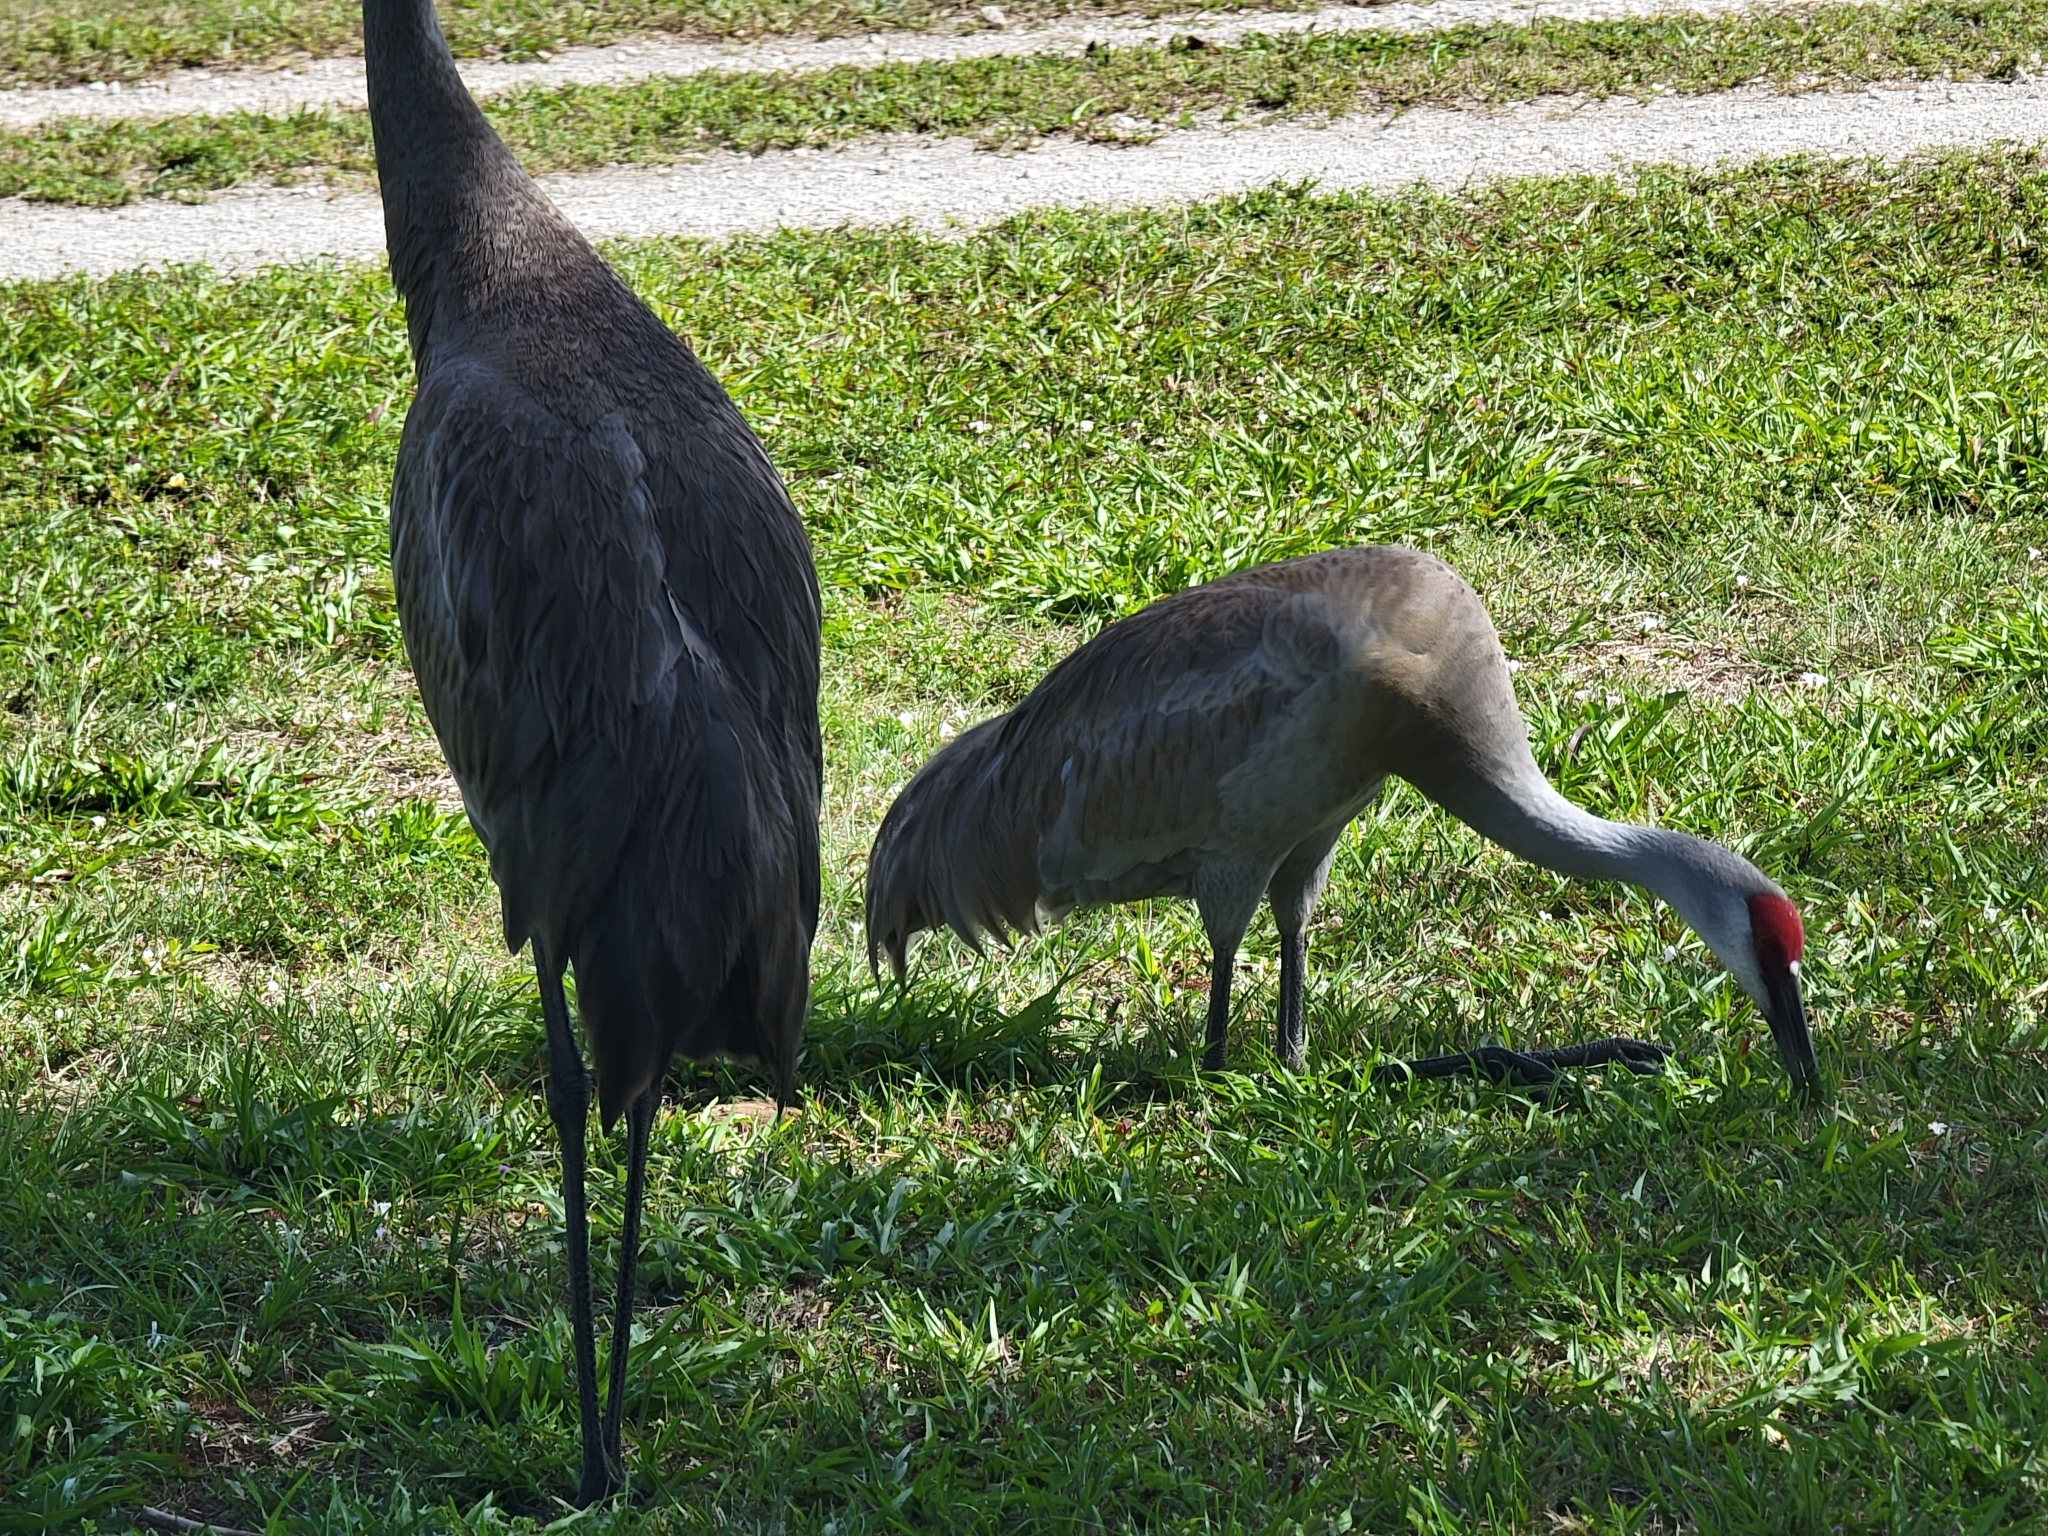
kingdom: Animalia
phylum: Chordata
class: Aves
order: Gruiformes
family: Gruidae
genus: Grus
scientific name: Grus canadensis
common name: Sandhill crane
